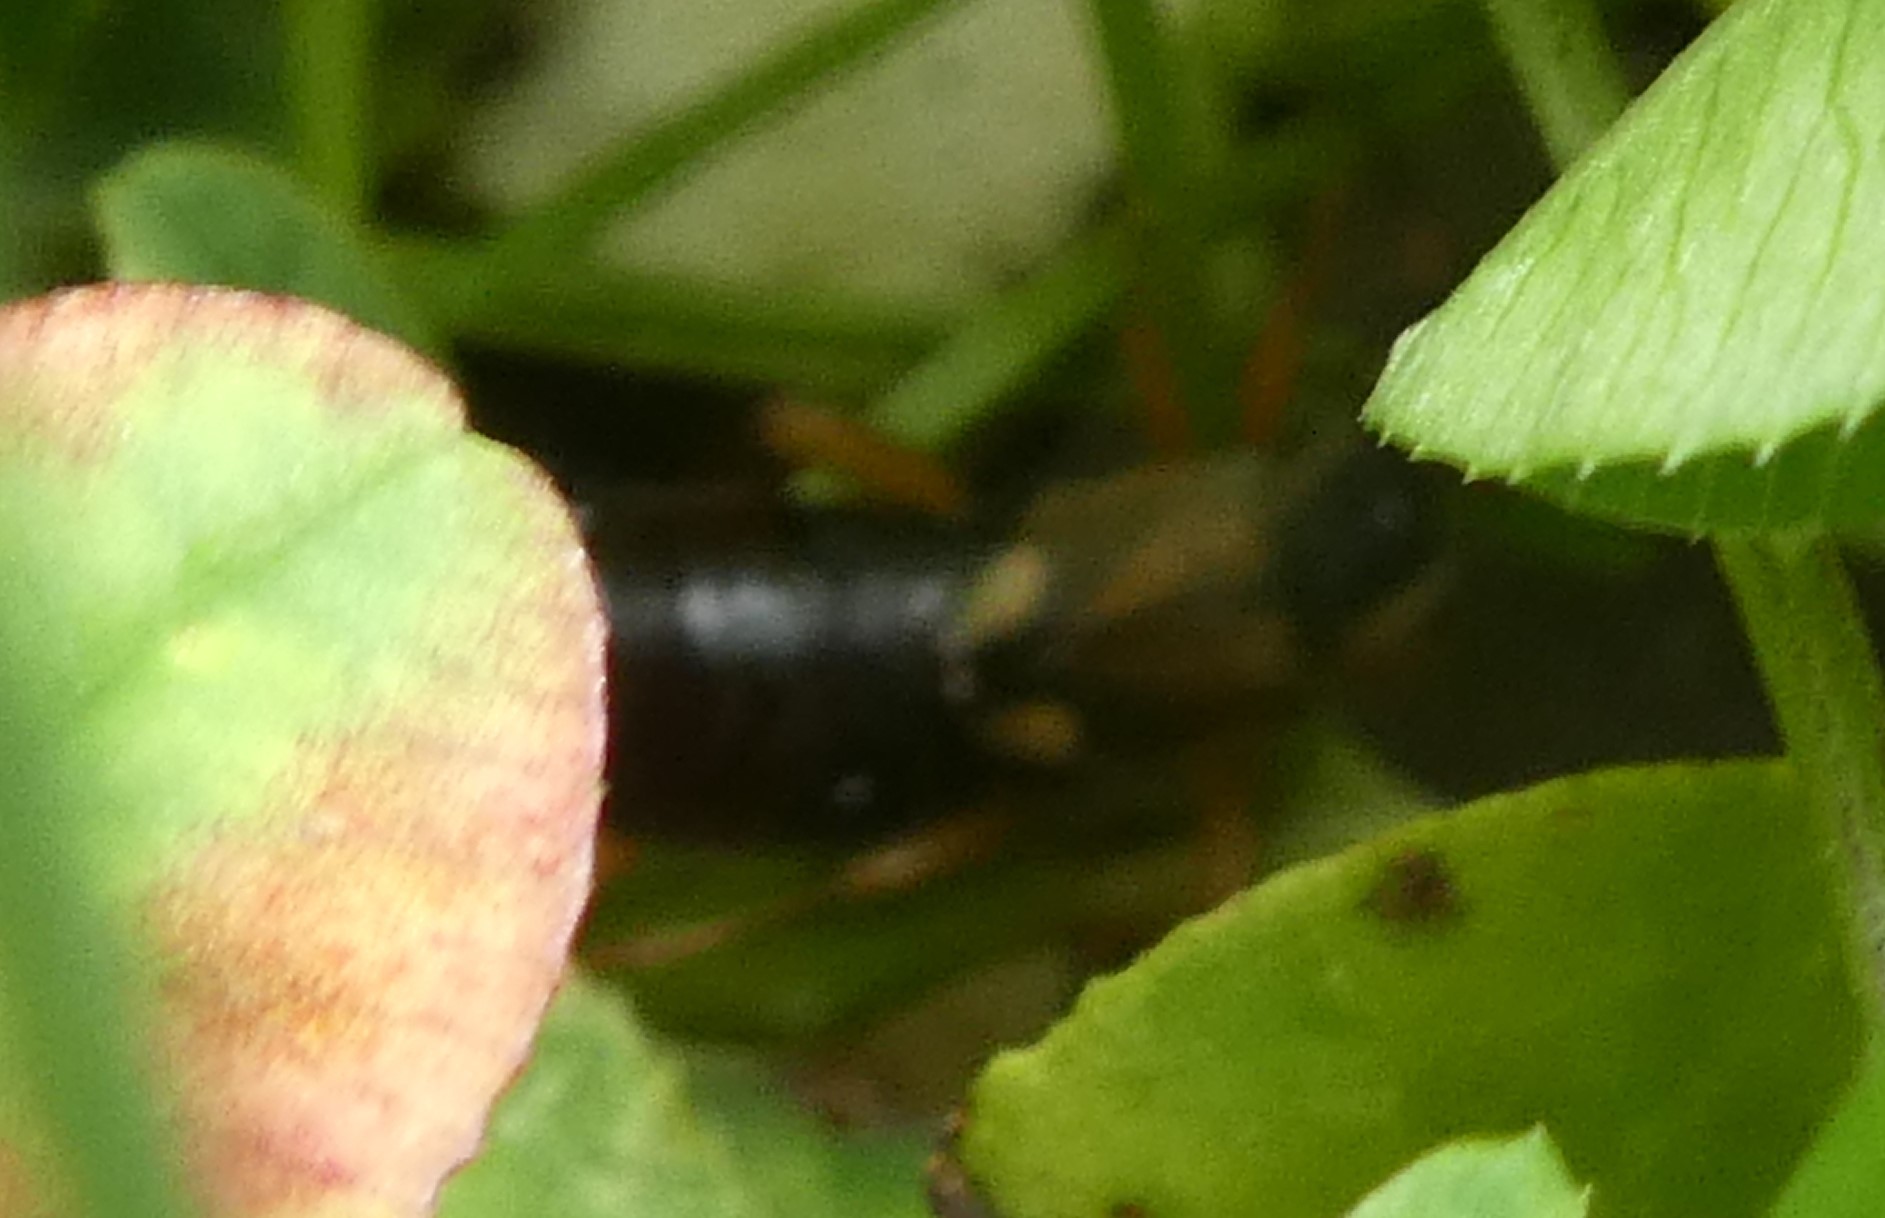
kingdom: Animalia
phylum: Arthropoda
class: Insecta
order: Dermaptera
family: Forficulidae
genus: Forficula
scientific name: Forficula
